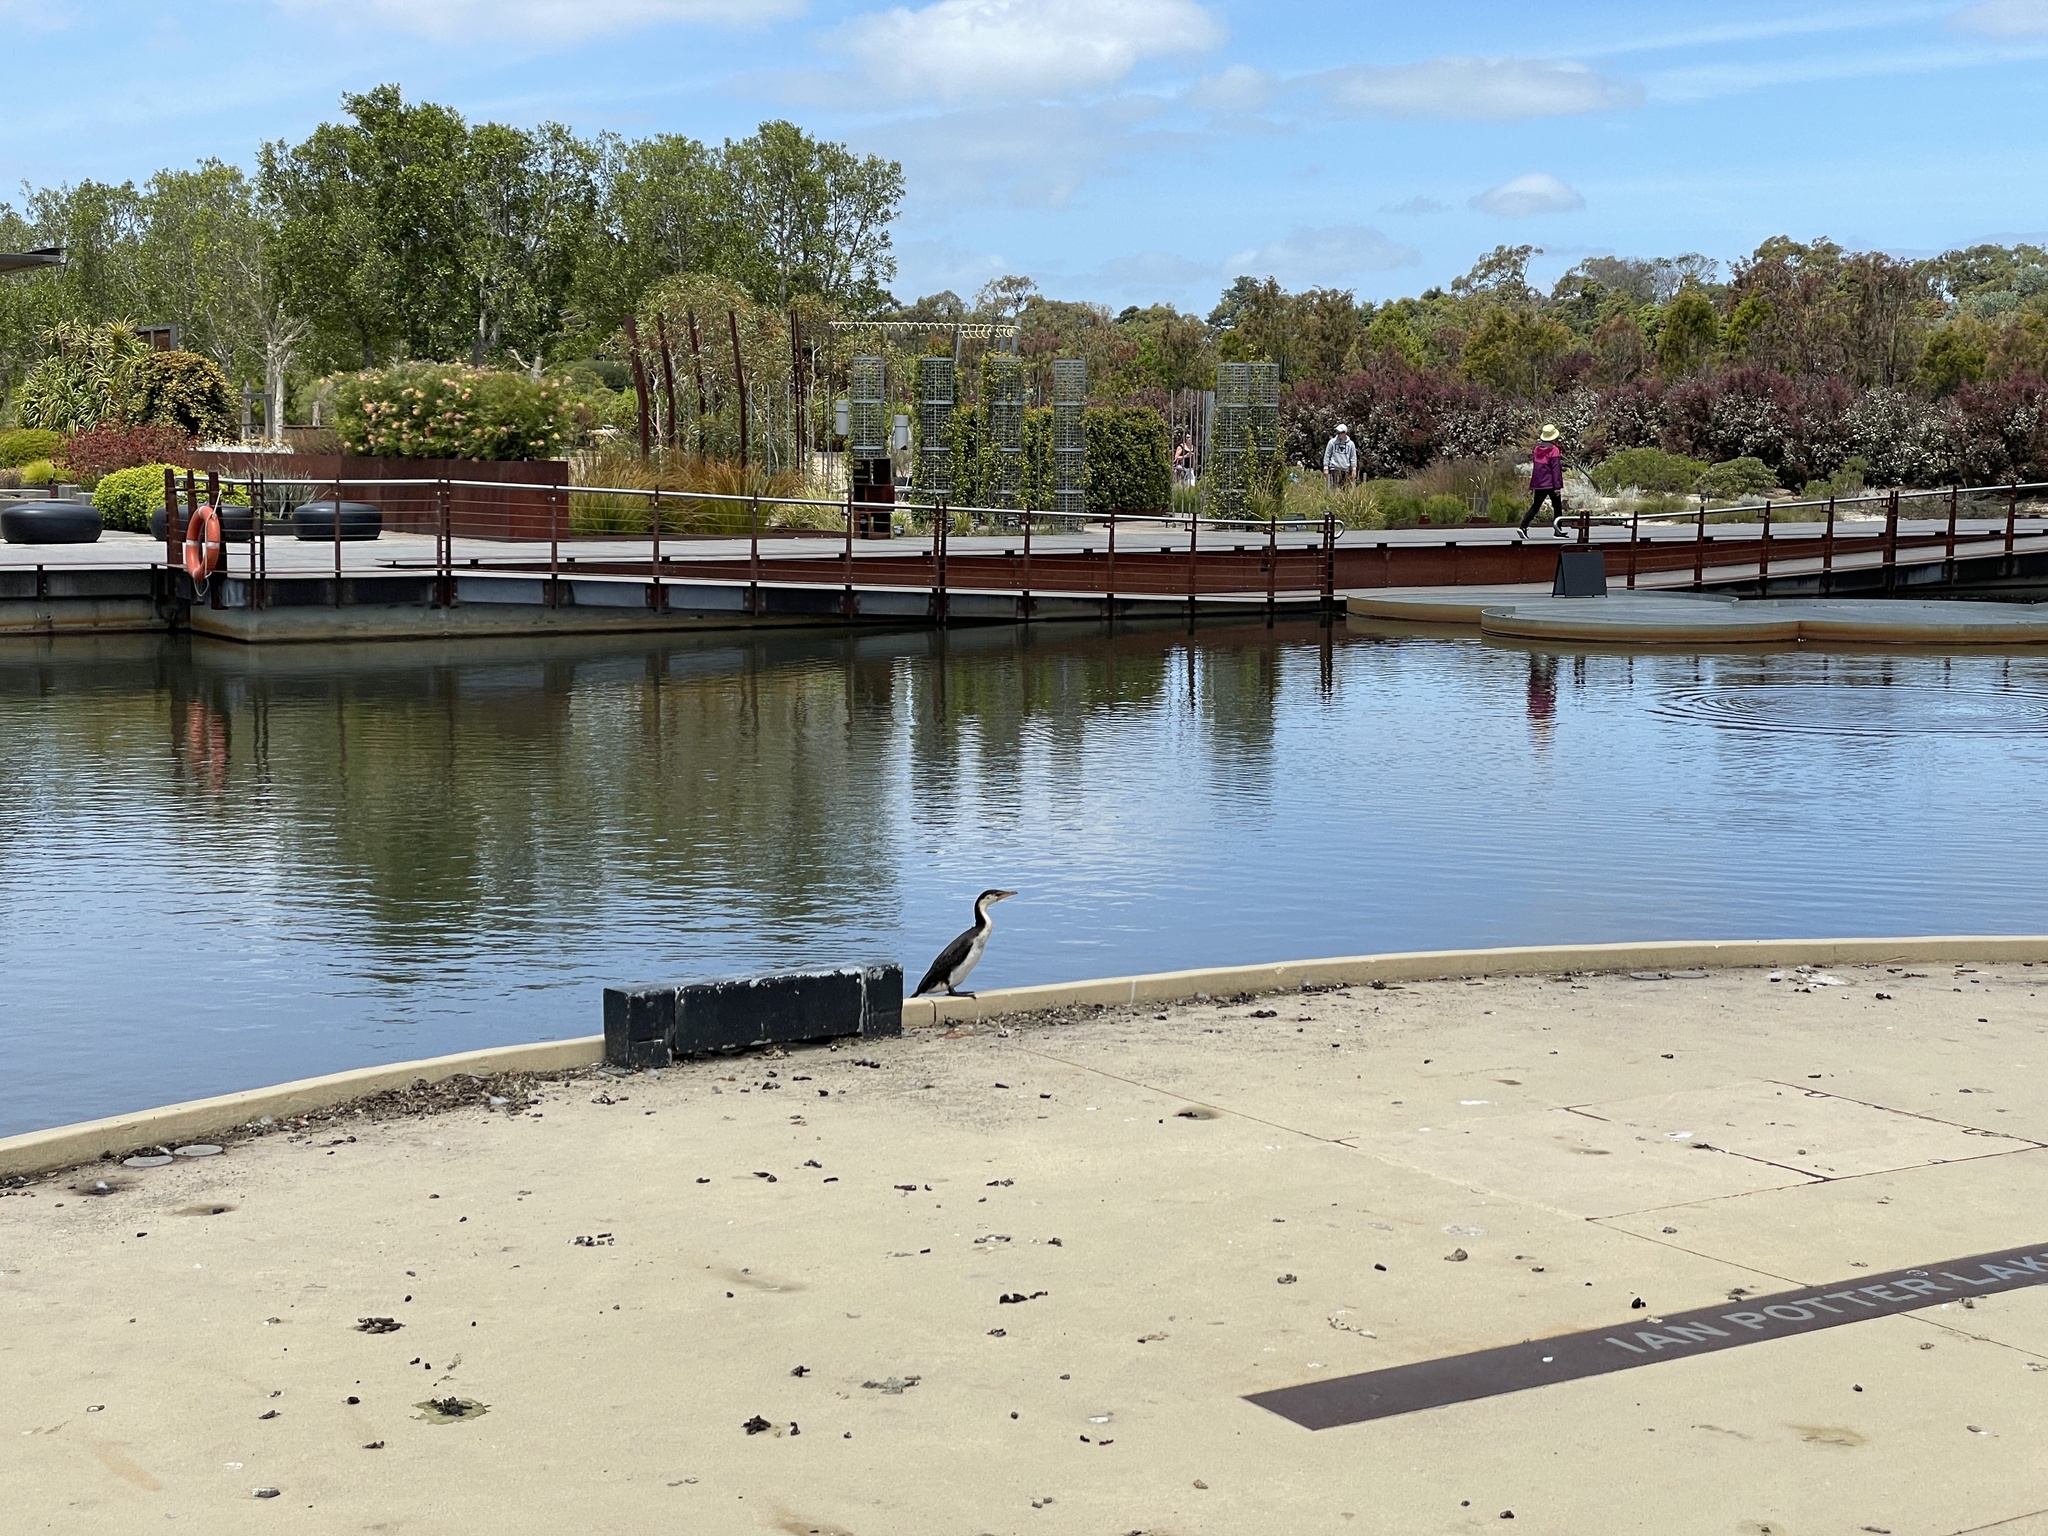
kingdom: Animalia
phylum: Chordata
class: Aves
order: Suliformes
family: Phalacrocoracidae
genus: Microcarbo
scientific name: Microcarbo melanoleucos
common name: Little pied cormorant
